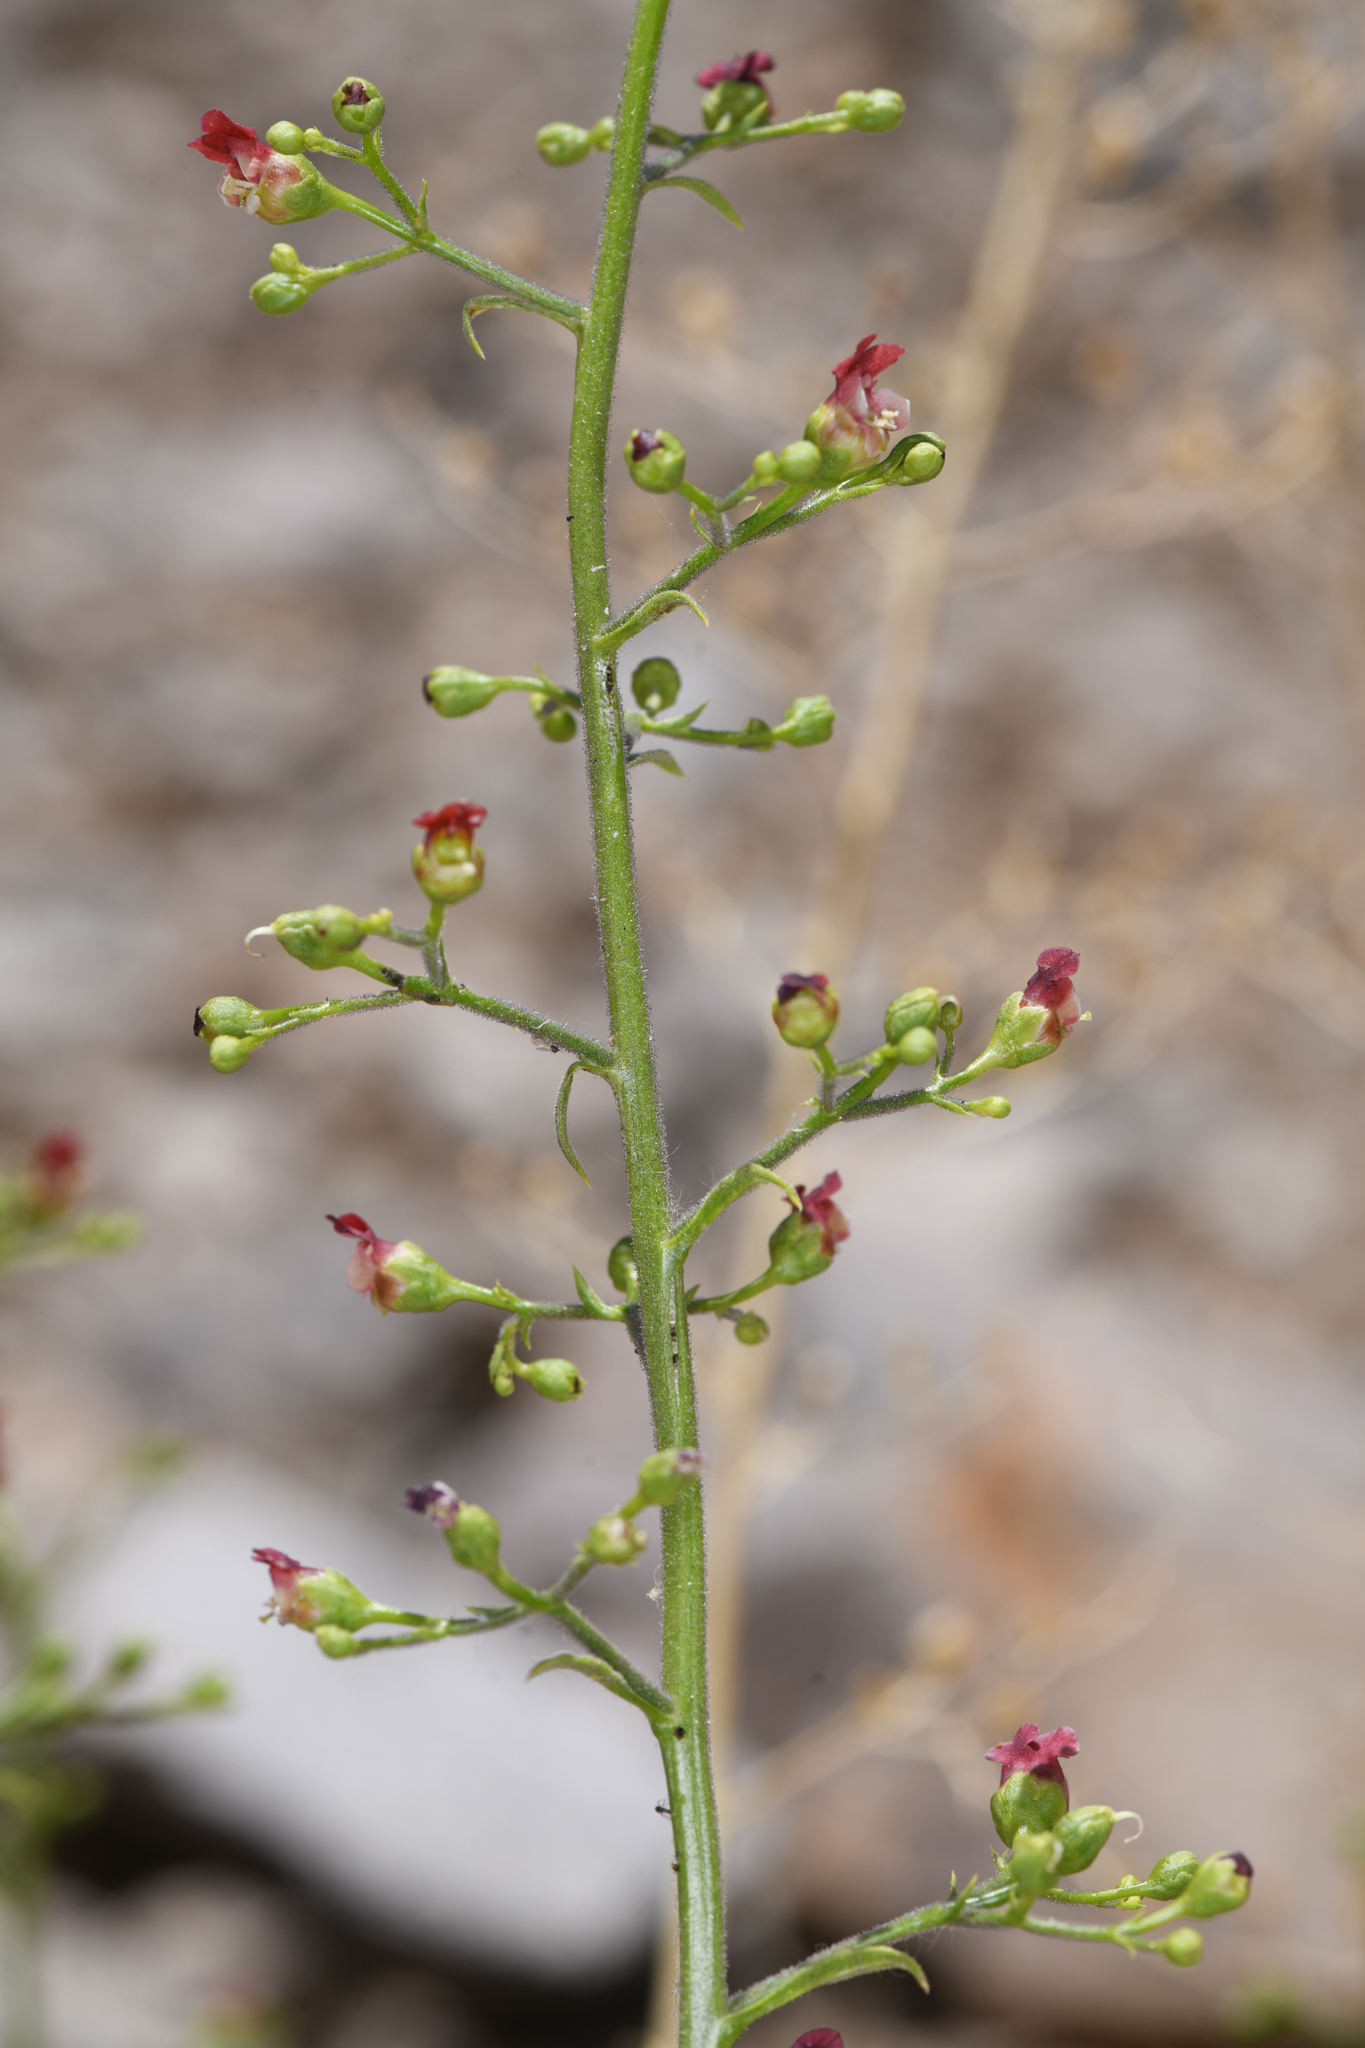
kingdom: Plantae
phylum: Tracheophyta
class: Magnoliopsida
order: Lamiales
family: Scrophulariaceae
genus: Scrophularia
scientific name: Scrophularia desertorum
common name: Desert figwort
